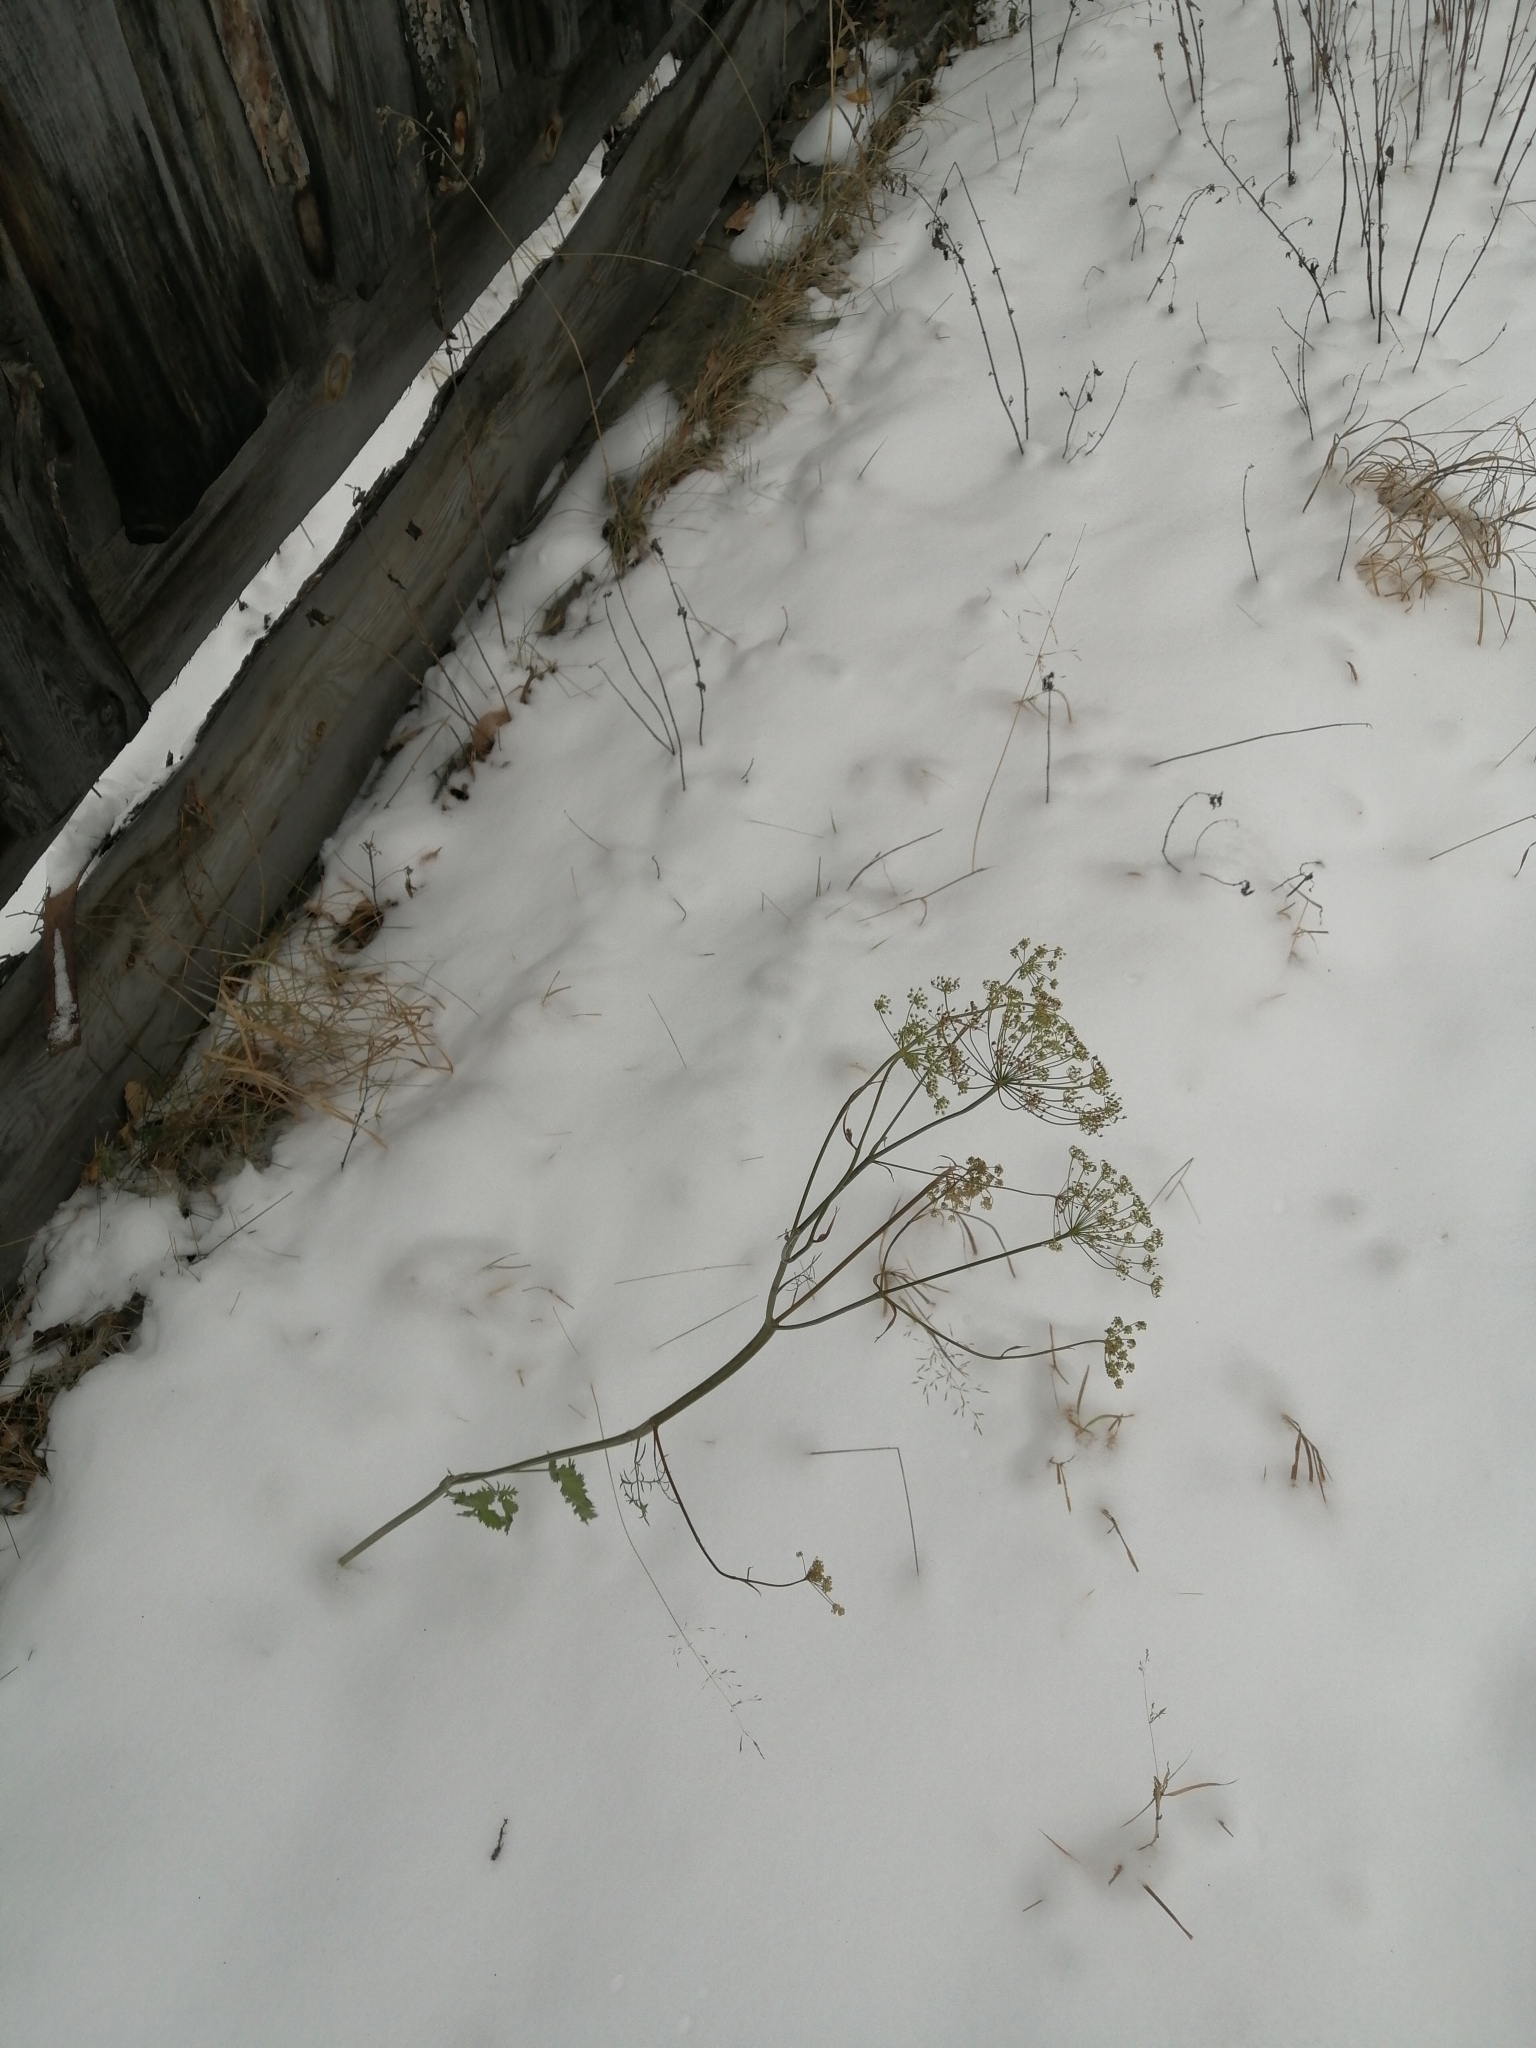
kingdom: Plantae
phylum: Tracheophyta
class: Magnoliopsida
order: Apiales
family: Apiaceae
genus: Pimpinella
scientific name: Pimpinella saxifraga
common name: Burnet-saxifrage
